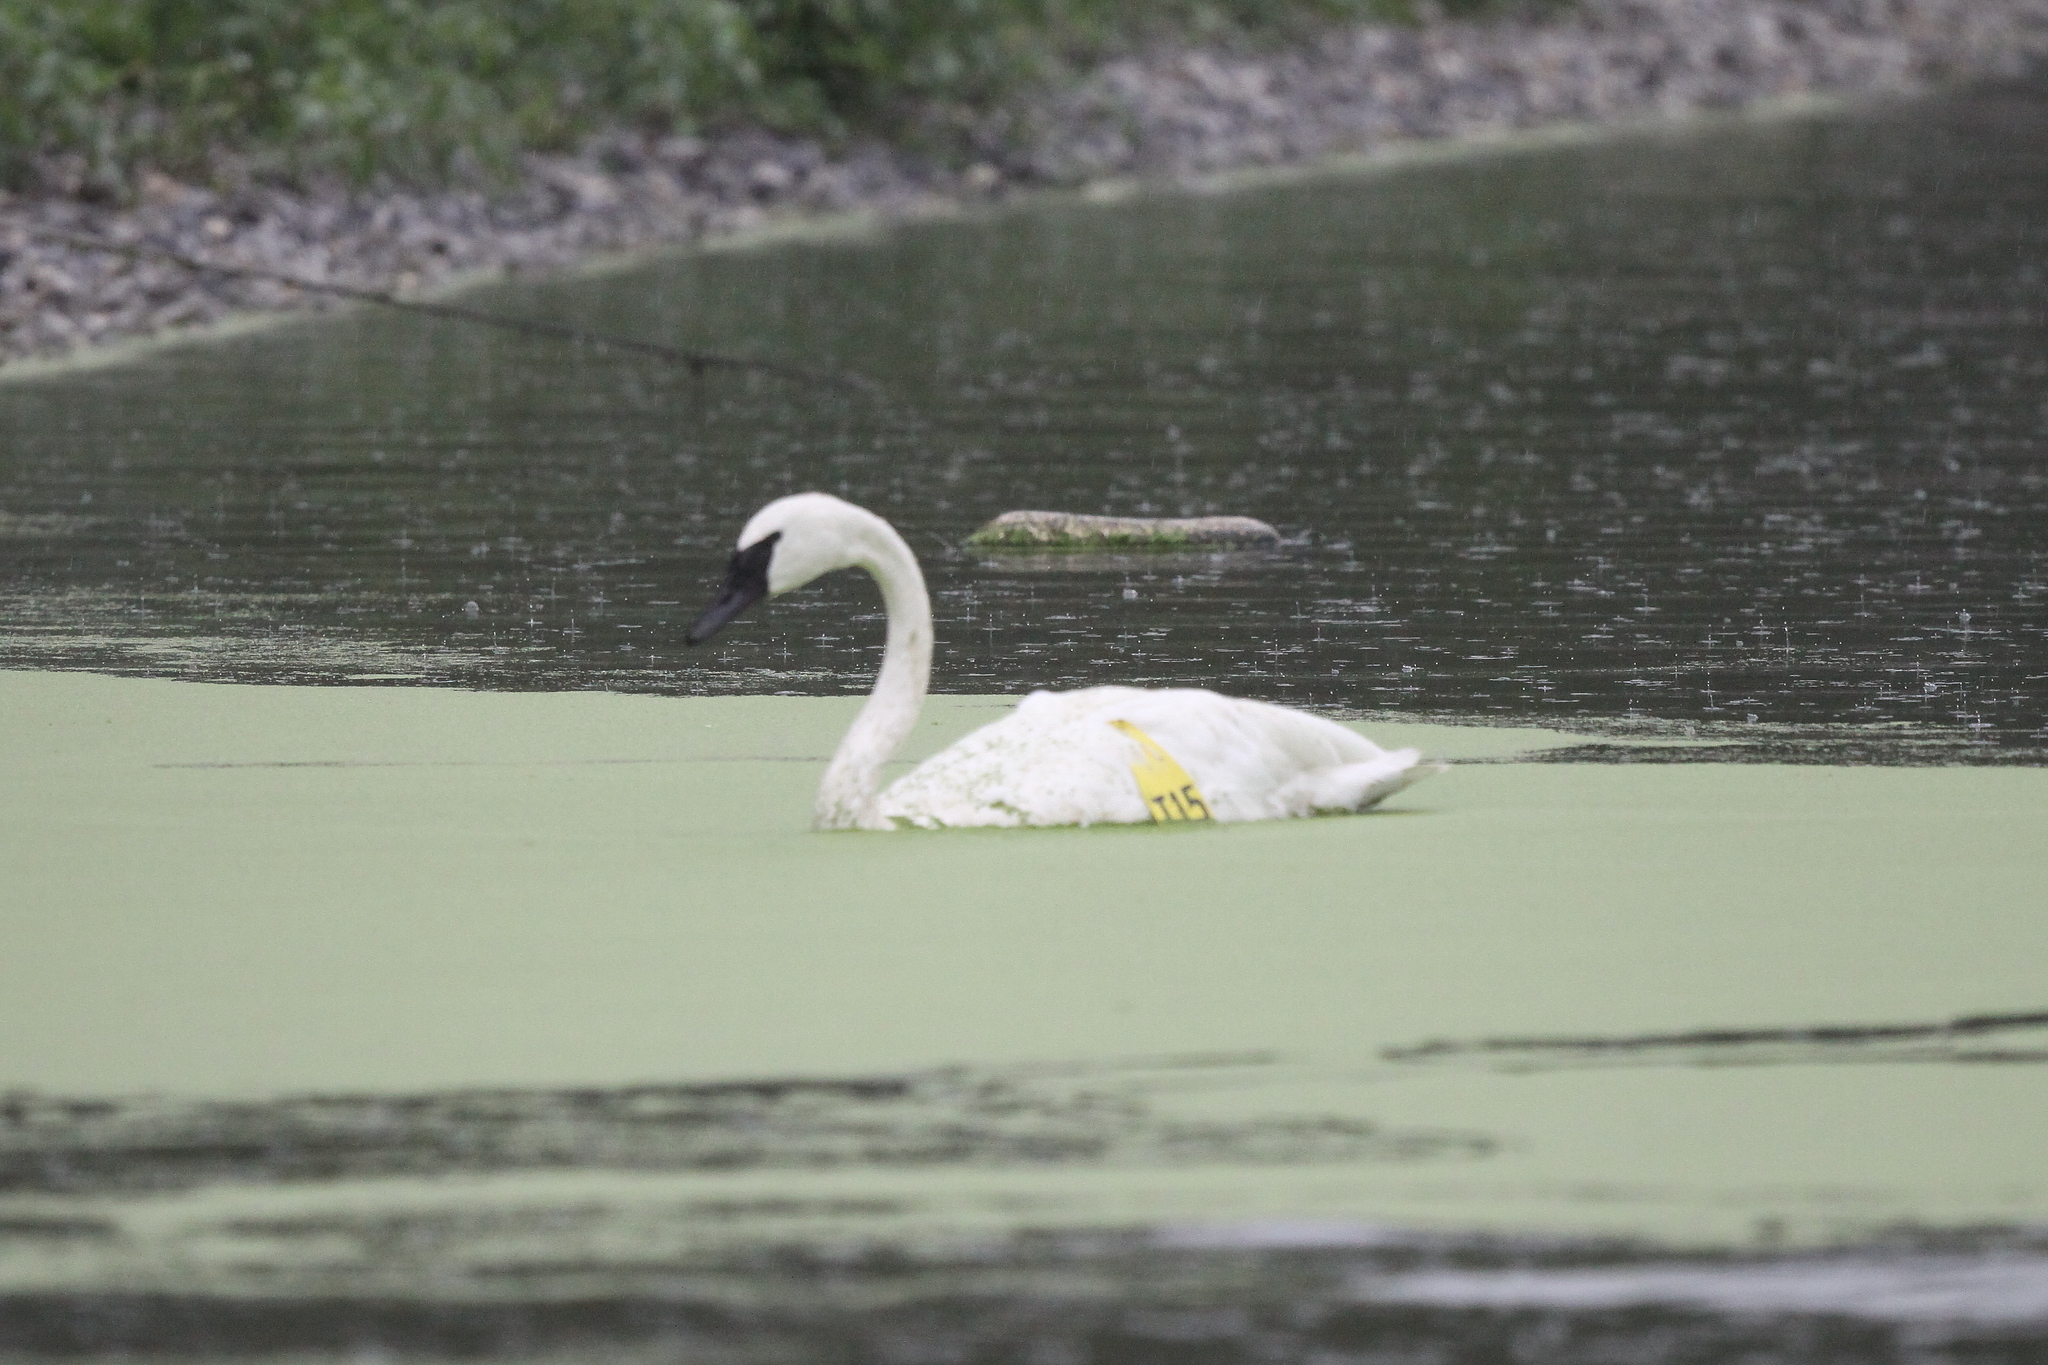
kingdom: Animalia
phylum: Chordata
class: Aves
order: Anseriformes
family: Anatidae
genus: Cygnus
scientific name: Cygnus buccinator
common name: Trumpeter swan
